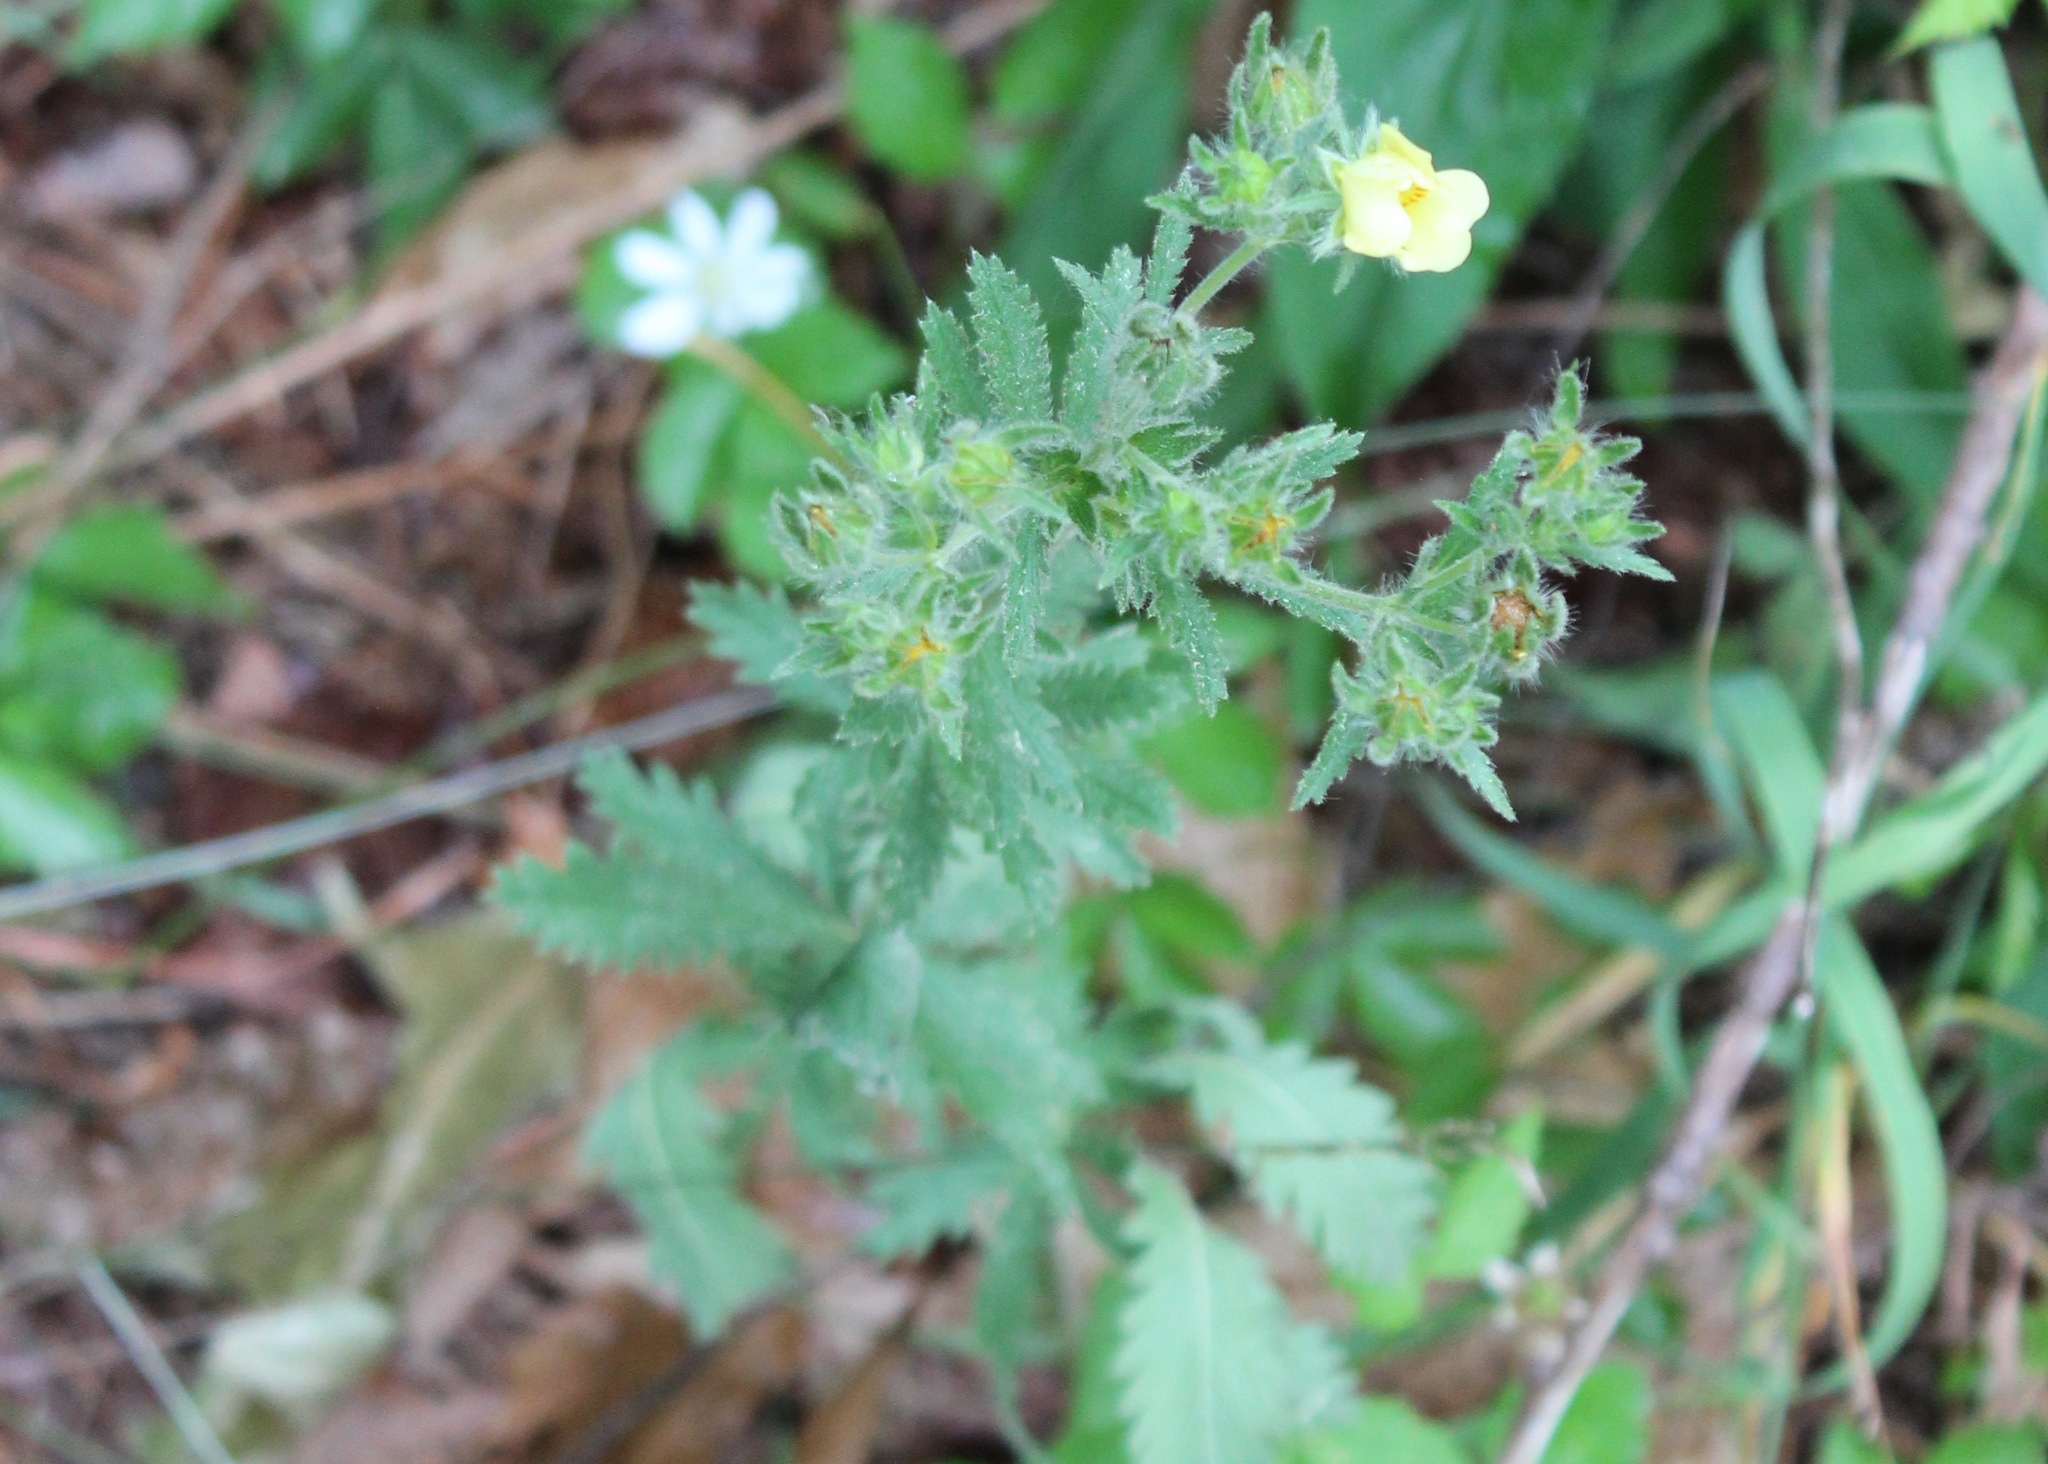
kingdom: Plantae
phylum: Tracheophyta
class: Magnoliopsida
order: Rosales
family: Rosaceae
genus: Potentilla
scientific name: Potentilla recta
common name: Sulphur cinquefoil
